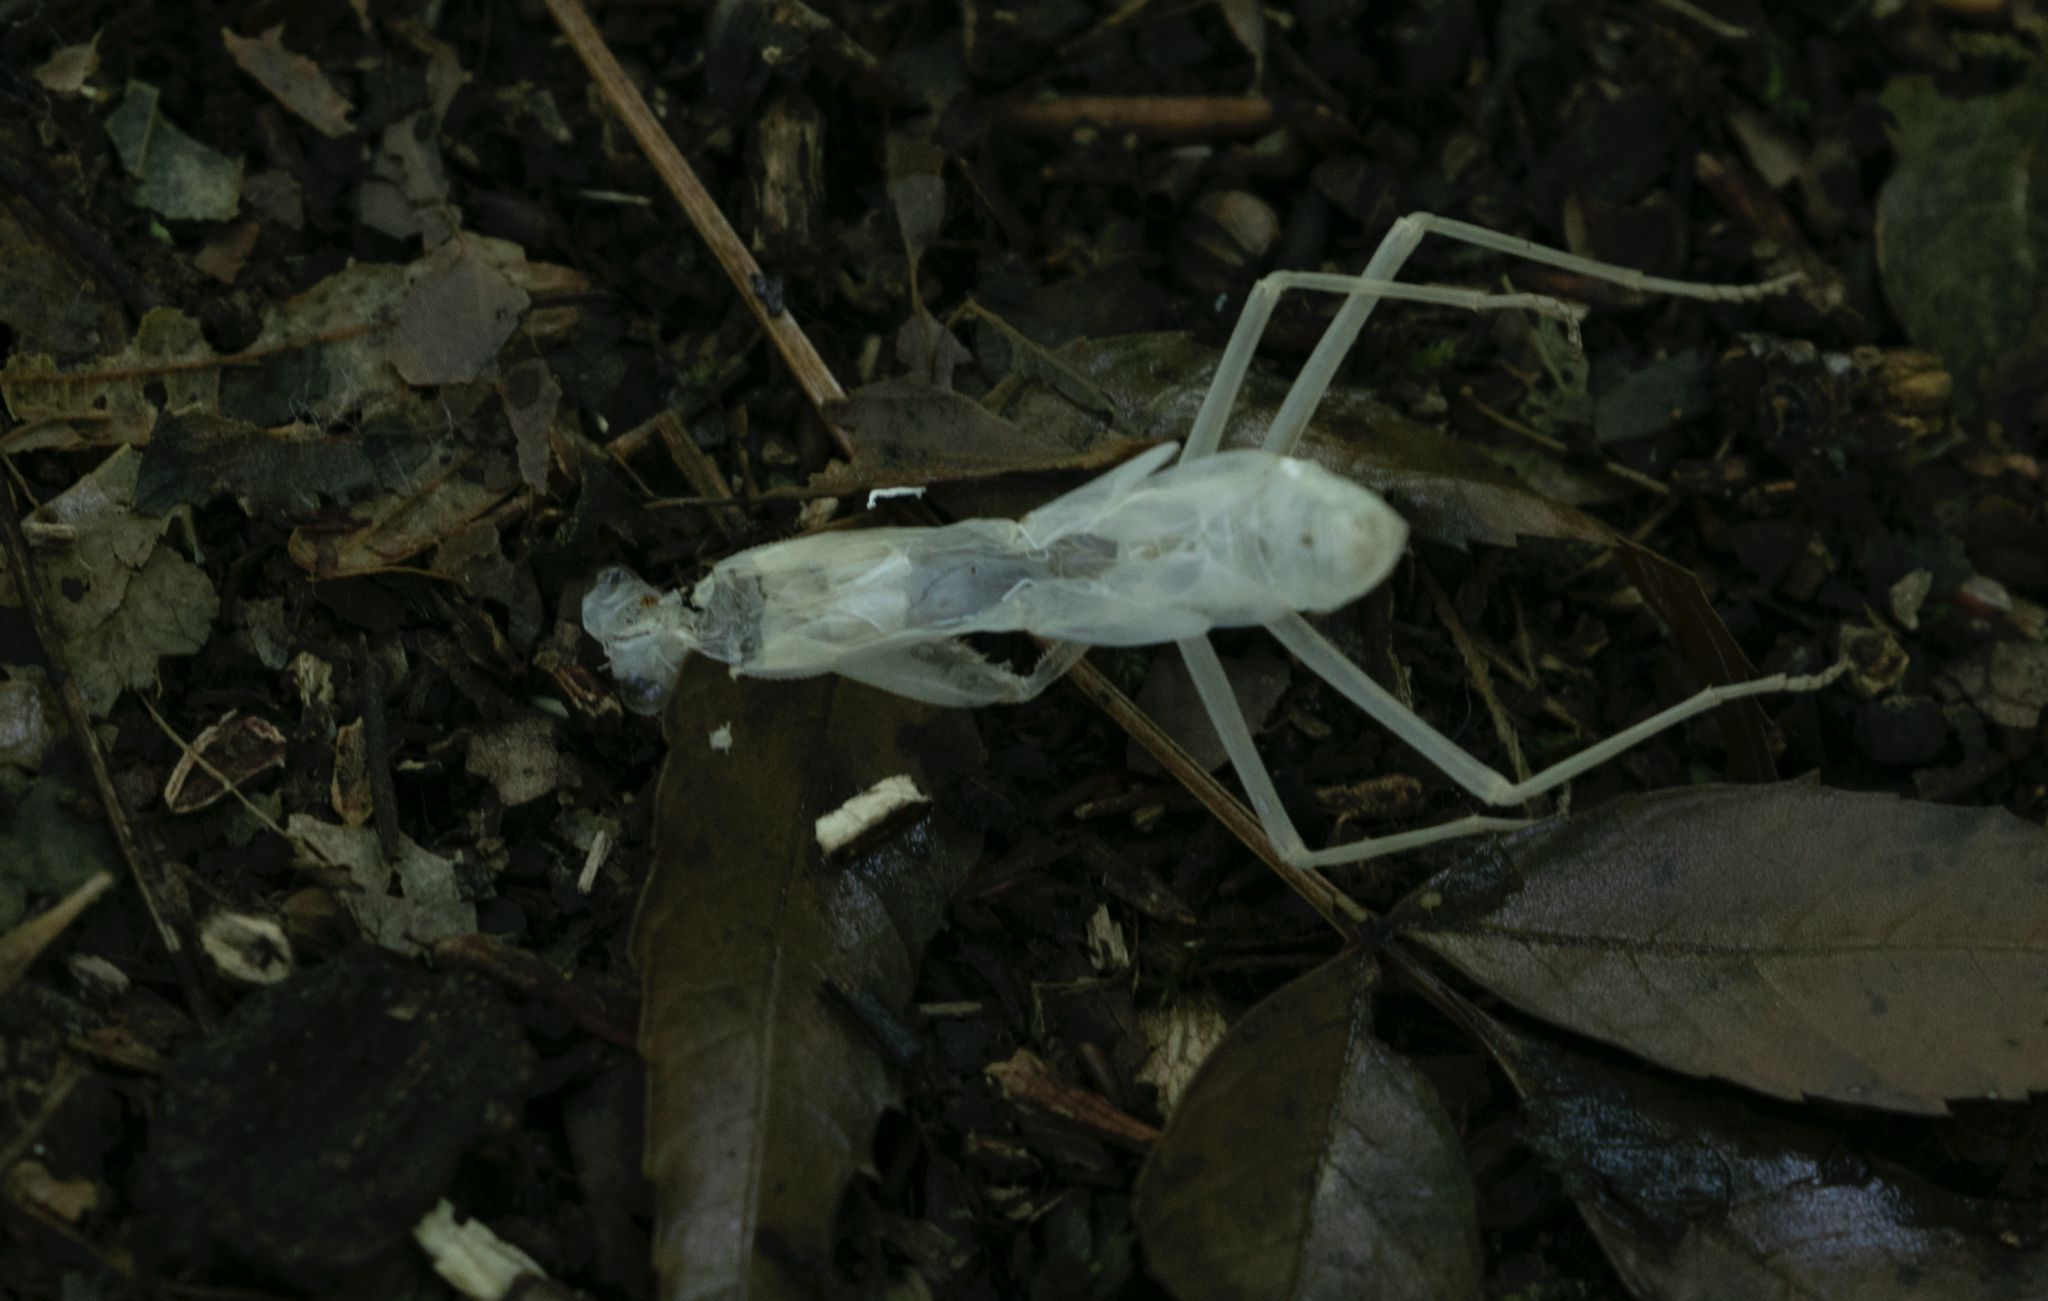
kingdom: Animalia
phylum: Arthropoda
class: Insecta
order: Mantodea
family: Mantidae
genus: Hierodula
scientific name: Hierodula transcaucasica
